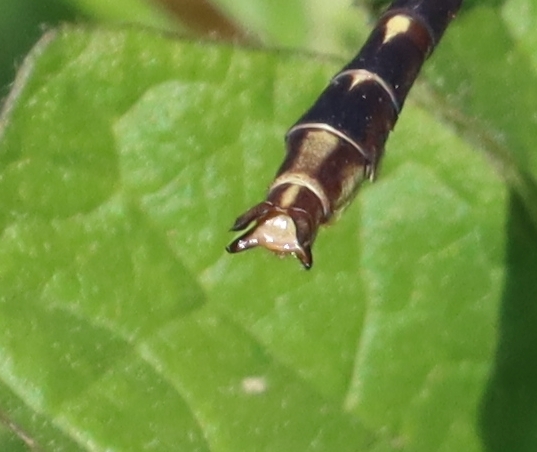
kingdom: Animalia
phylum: Arthropoda
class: Insecta
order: Odonata
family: Gomphidae
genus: Phanogomphus
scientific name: Phanogomphus lividus
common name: Ashy clubtail
